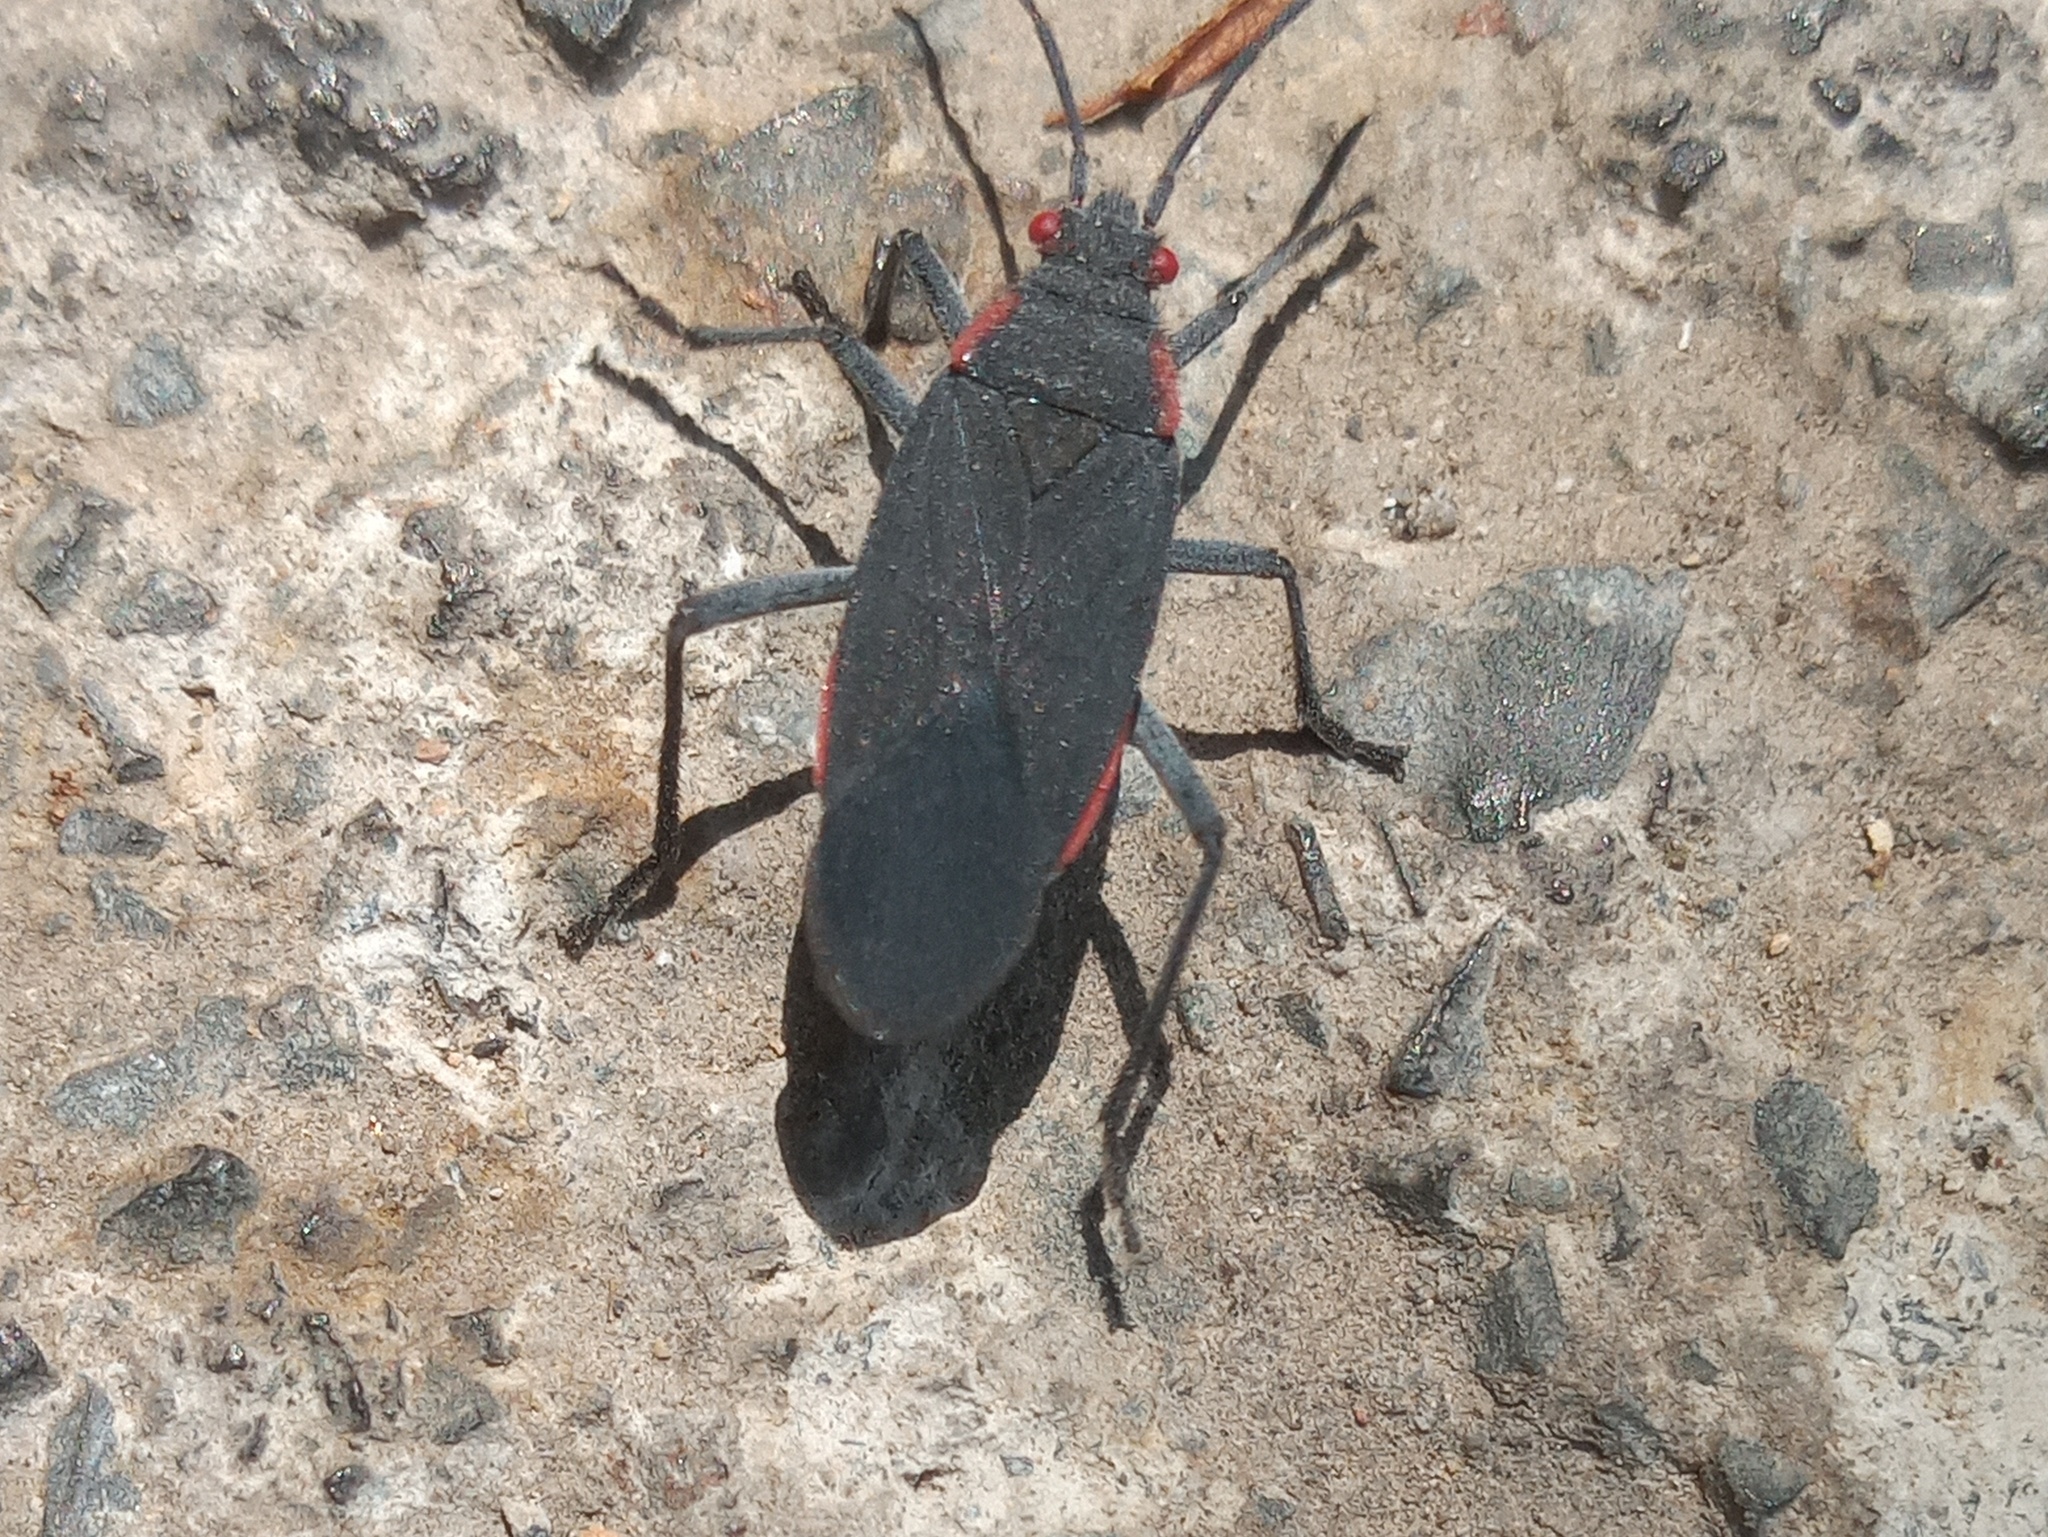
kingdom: Animalia
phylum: Arthropoda
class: Insecta
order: Hemiptera
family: Rhopalidae
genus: Jadera
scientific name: Jadera haematoloma
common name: Red-shouldered bug
